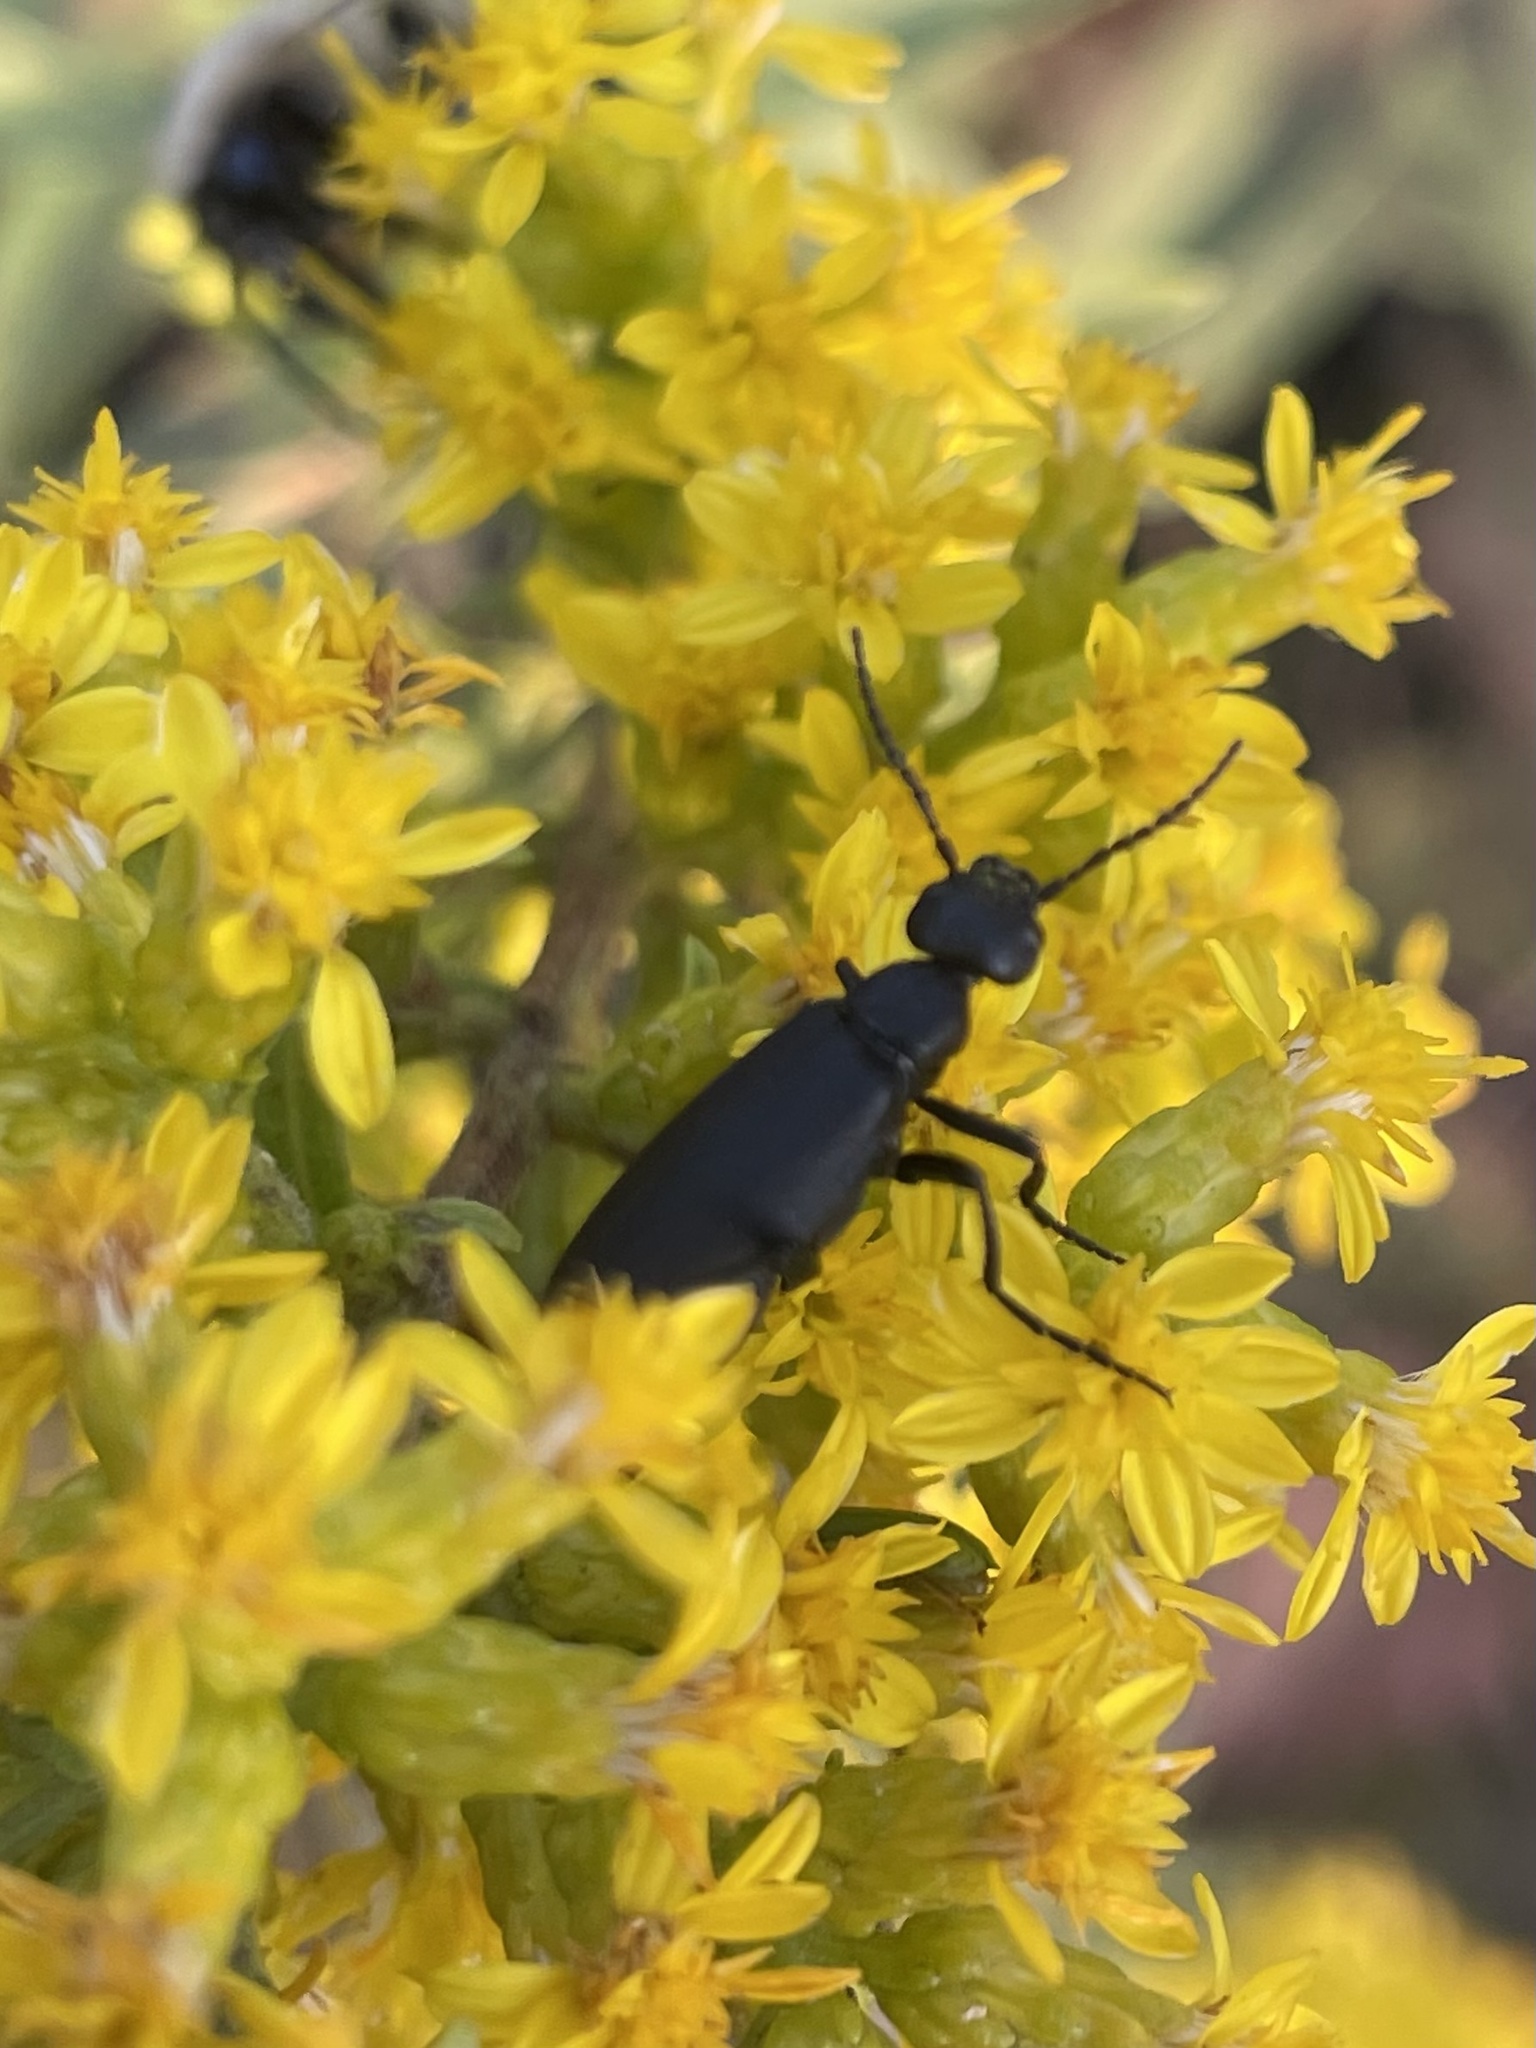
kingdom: Animalia
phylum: Arthropoda
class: Insecta
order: Coleoptera
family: Meloidae
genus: Epicauta
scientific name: Epicauta pensylvanica
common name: Black blister beetle
